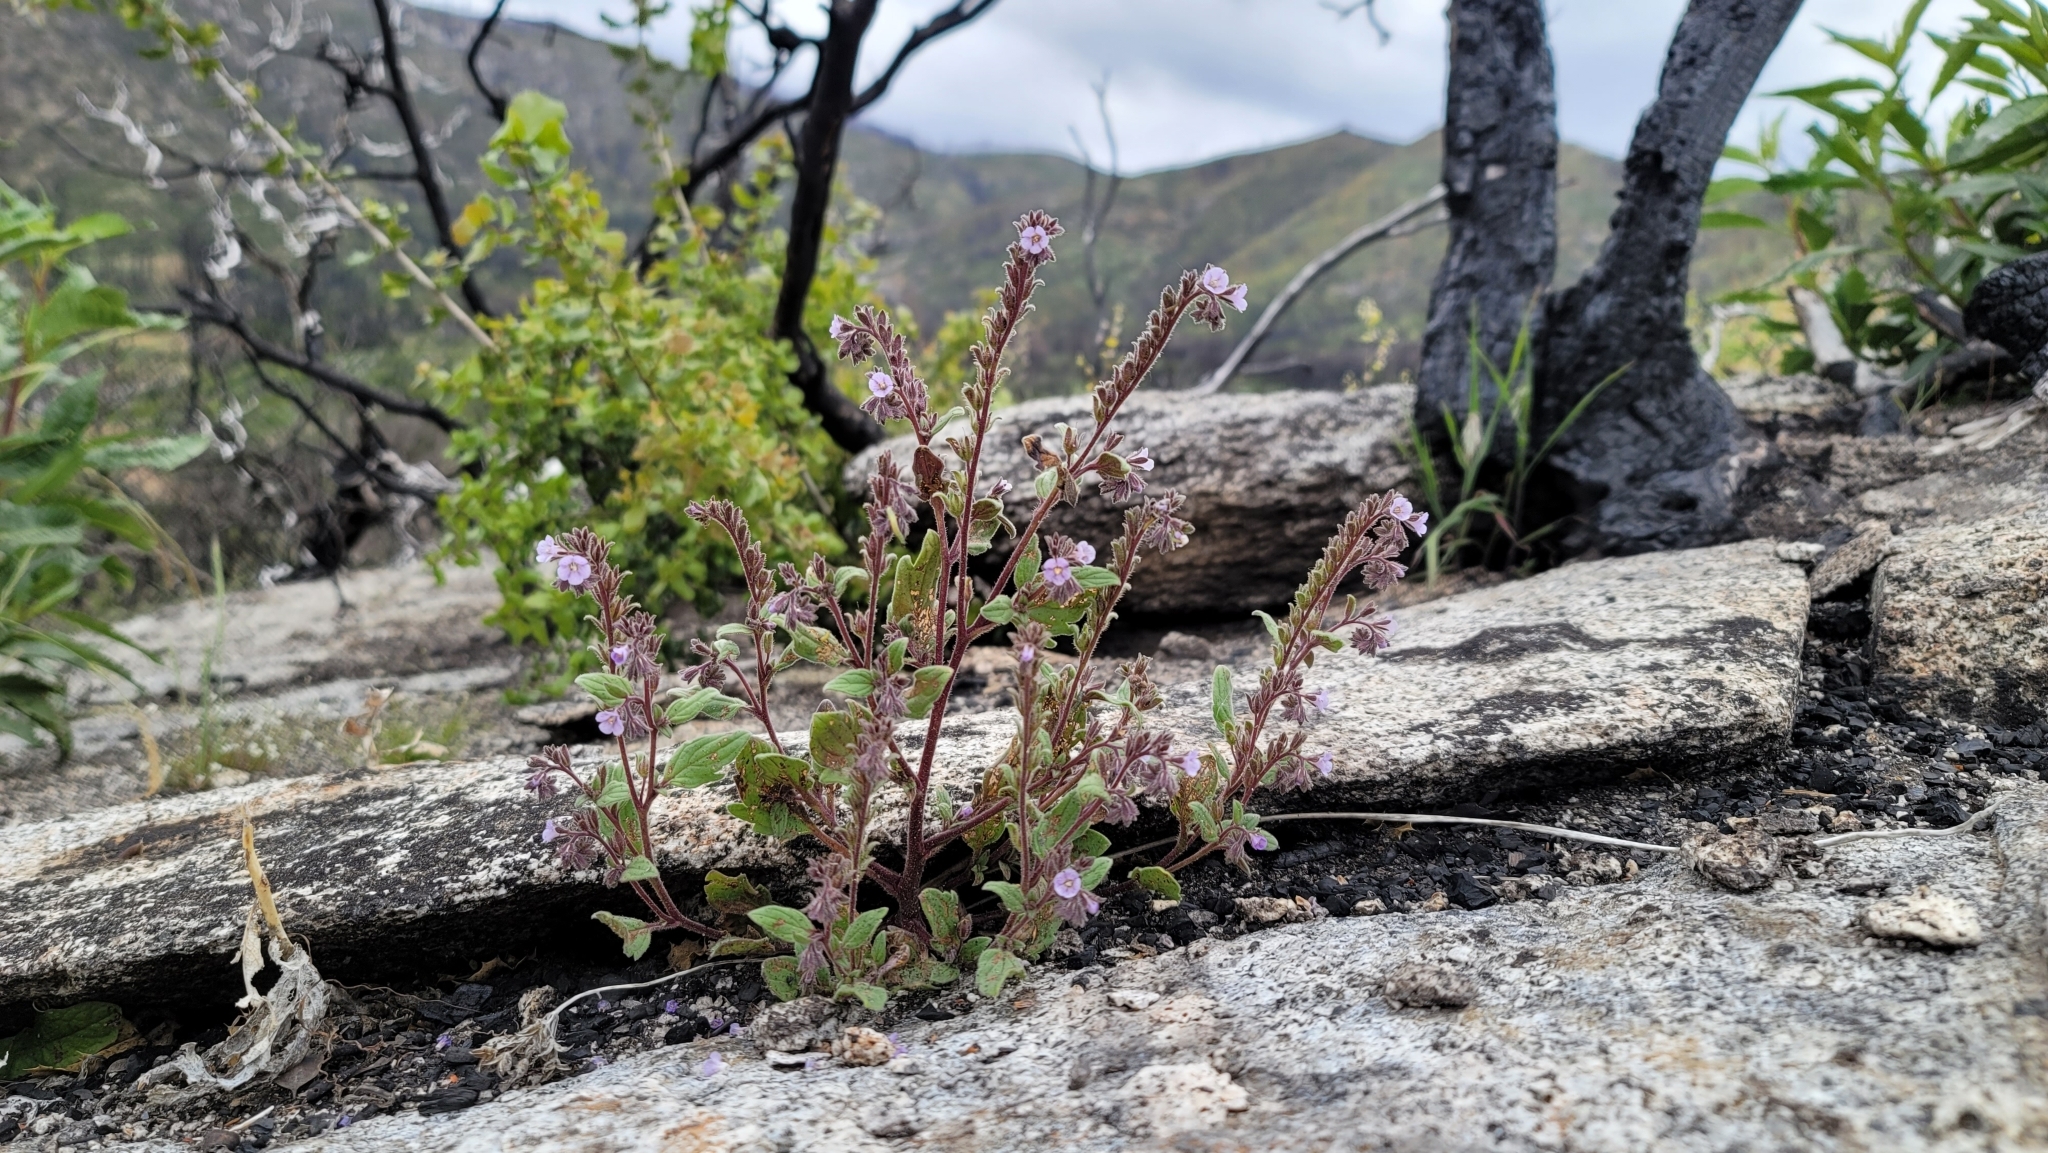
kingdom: Plantae
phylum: Tracheophyta
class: Magnoliopsida
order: Boraginales
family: Hydrophyllaceae
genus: Phacelia
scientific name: Phacelia vallicola
